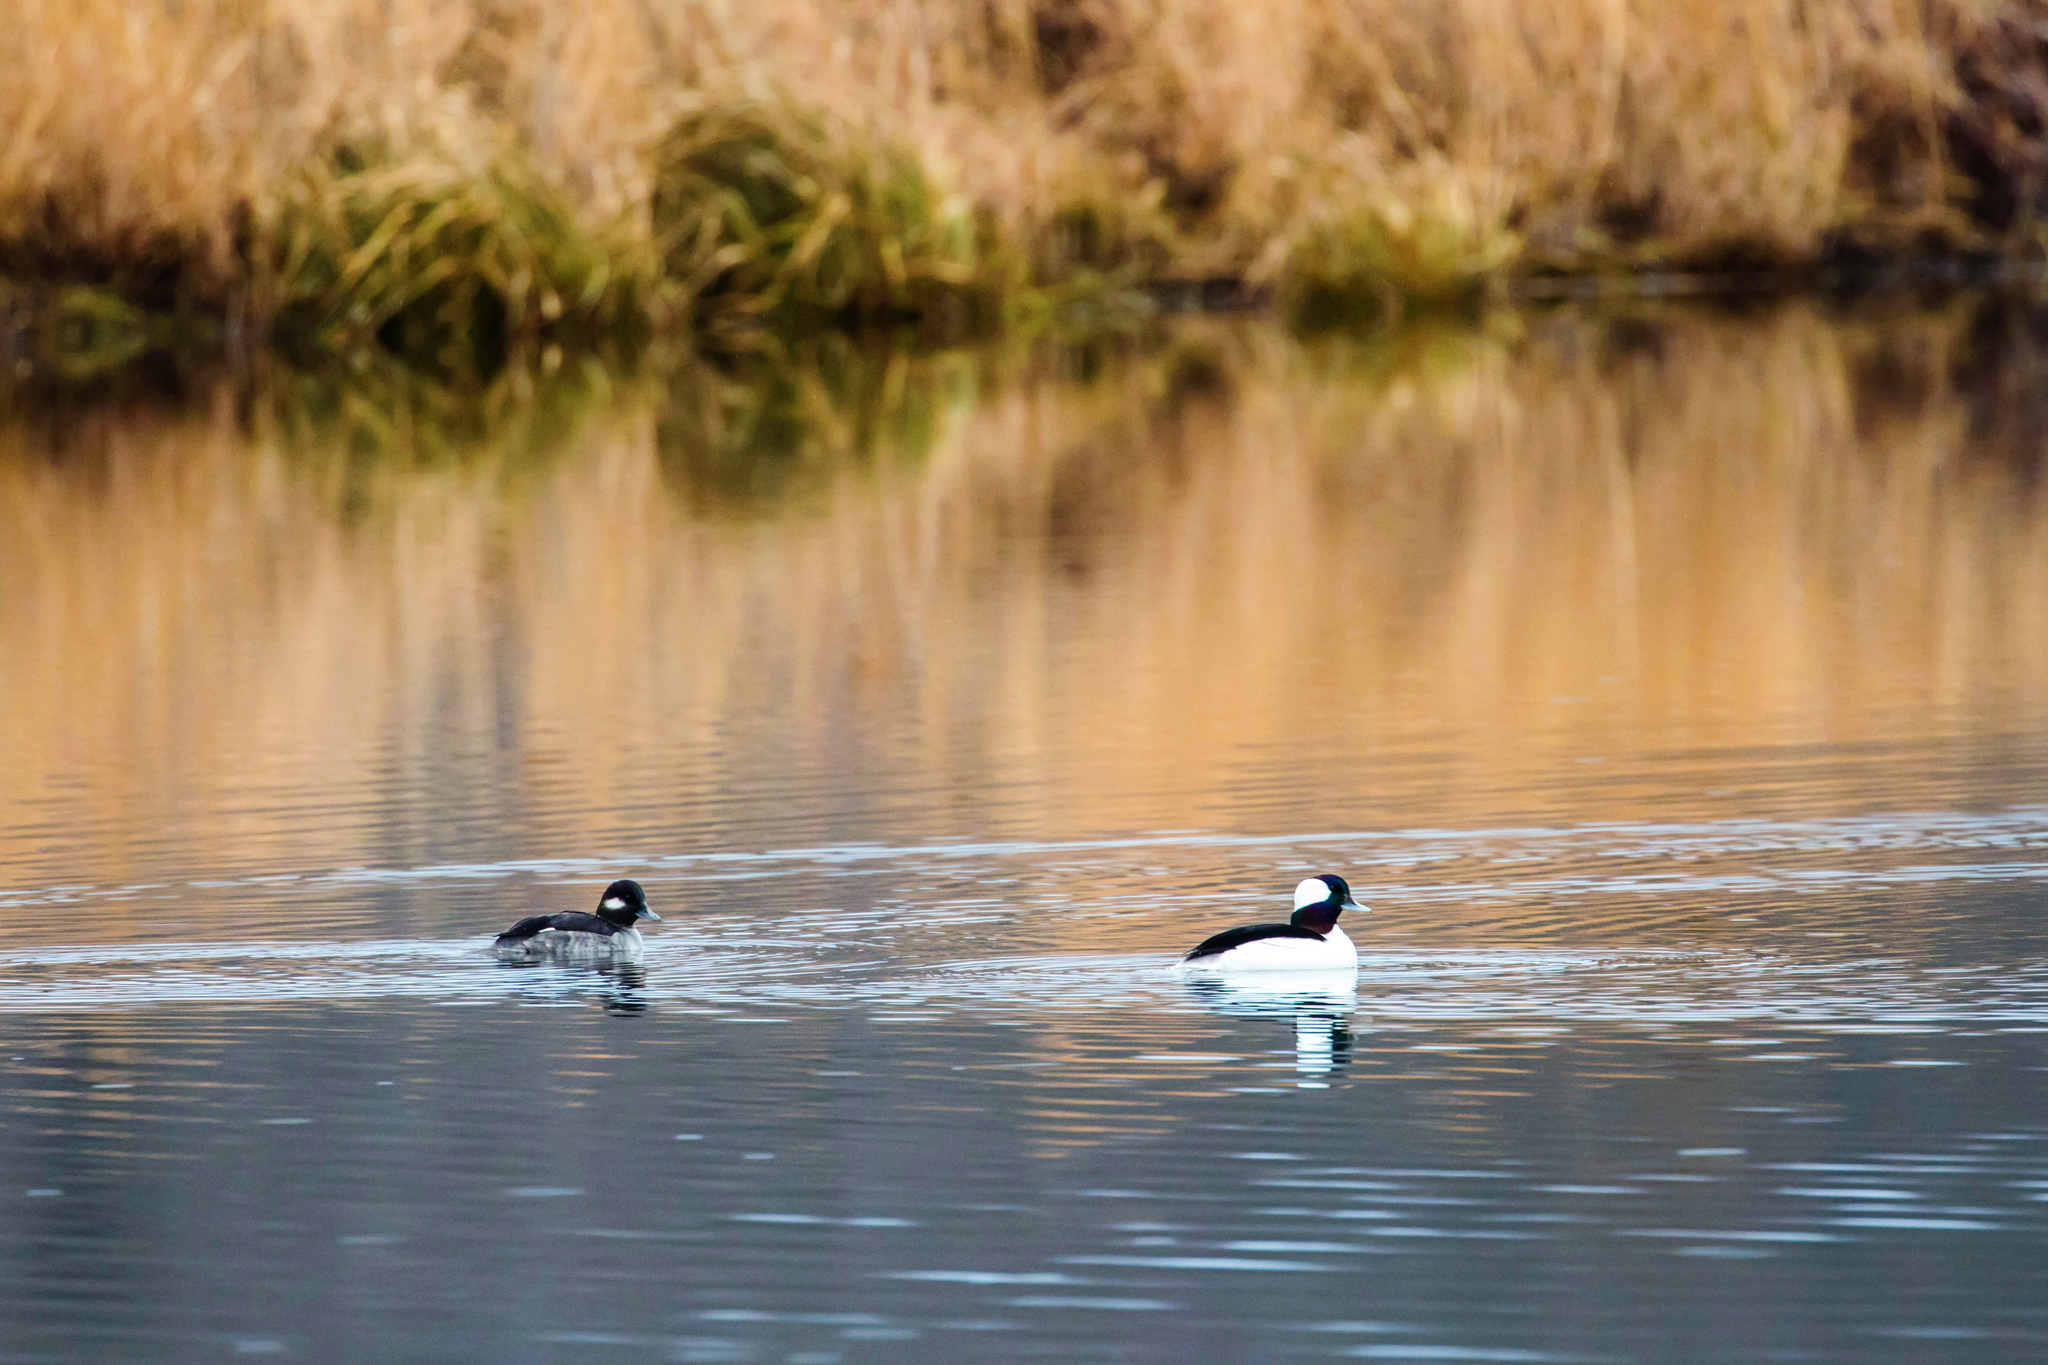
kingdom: Animalia
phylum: Chordata
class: Aves
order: Anseriformes
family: Anatidae
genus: Bucephala
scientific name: Bucephala albeola
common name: Bufflehead
